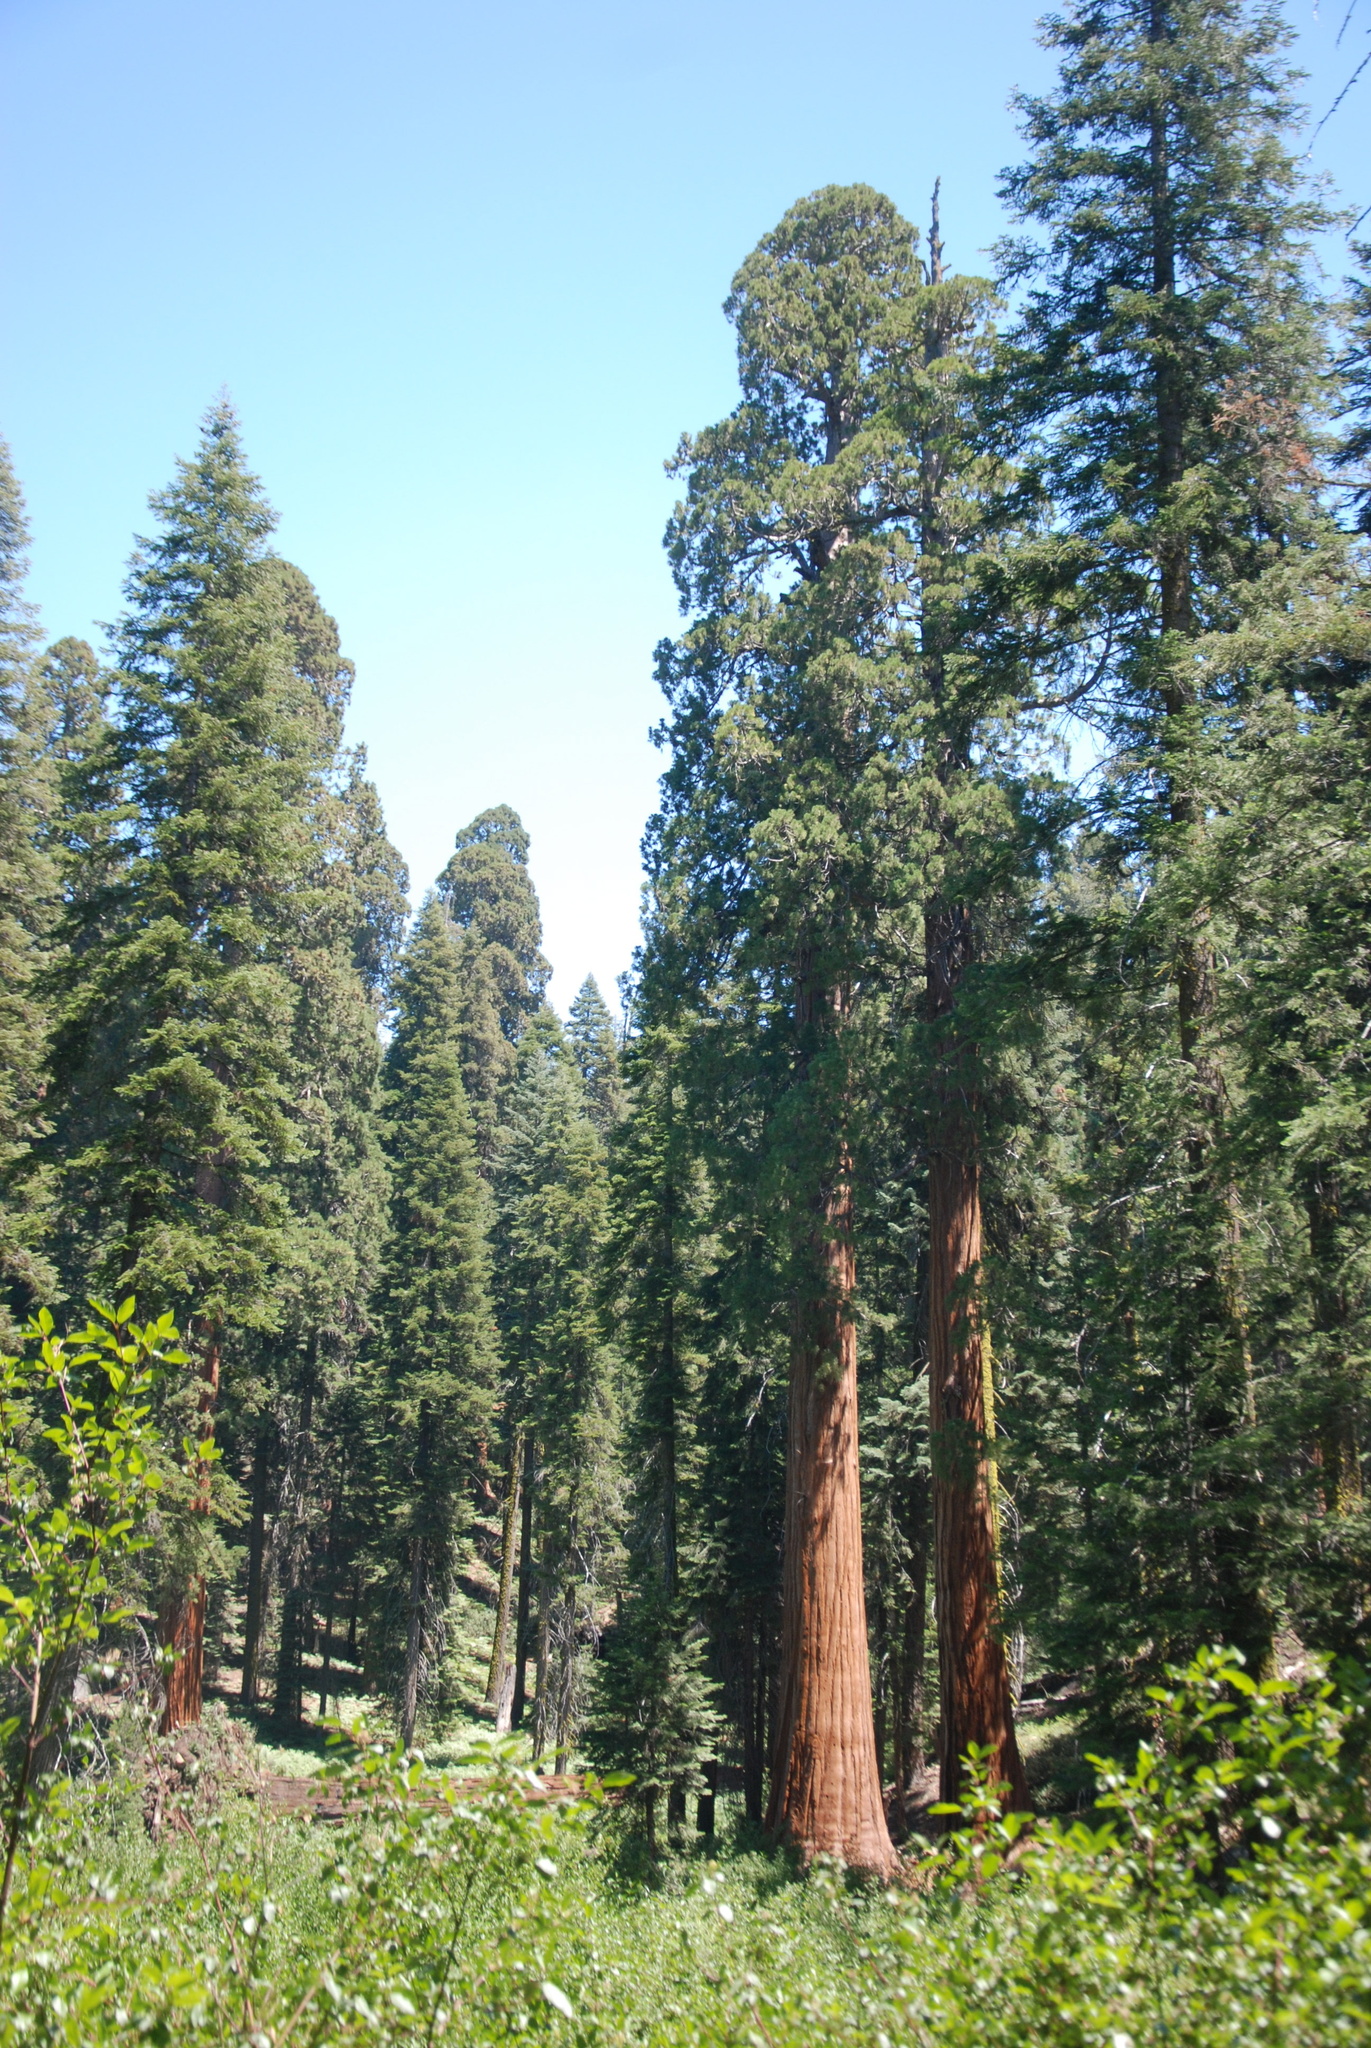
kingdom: Plantae
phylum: Tracheophyta
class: Pinopsida
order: Pinales
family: Cupressaceae
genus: Sequoiadendron
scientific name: Sequoiadendron giganteum
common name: Wellingtonia
